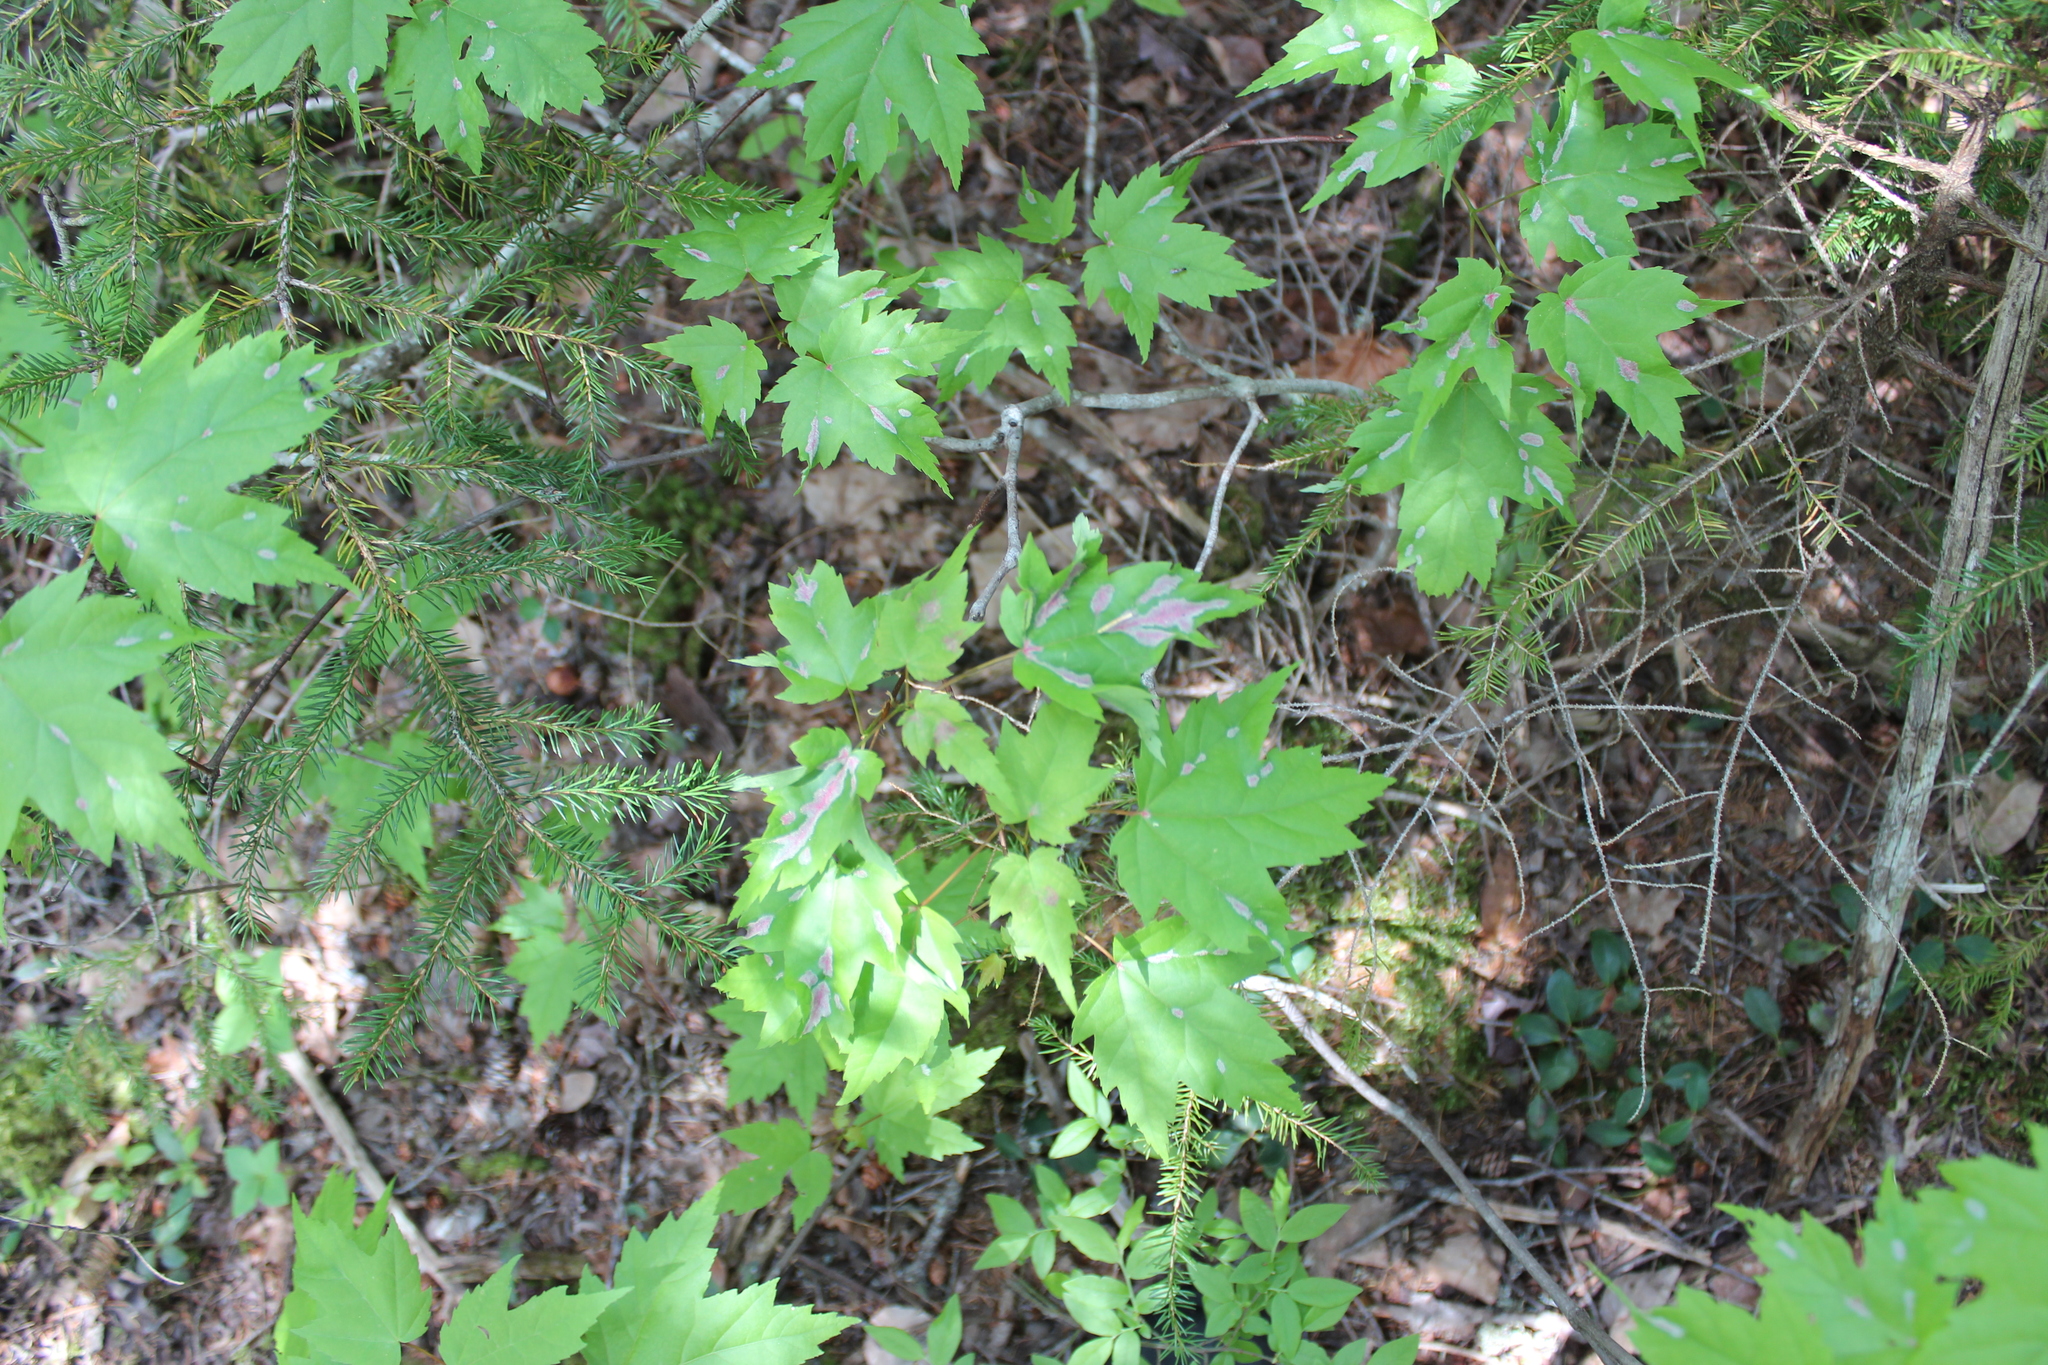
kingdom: Plantae
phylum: Tracheophyta
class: Magnoliopsida
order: Sapindales
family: Sapindaceae
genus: Acer
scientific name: Acer rubrum
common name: Red maple
